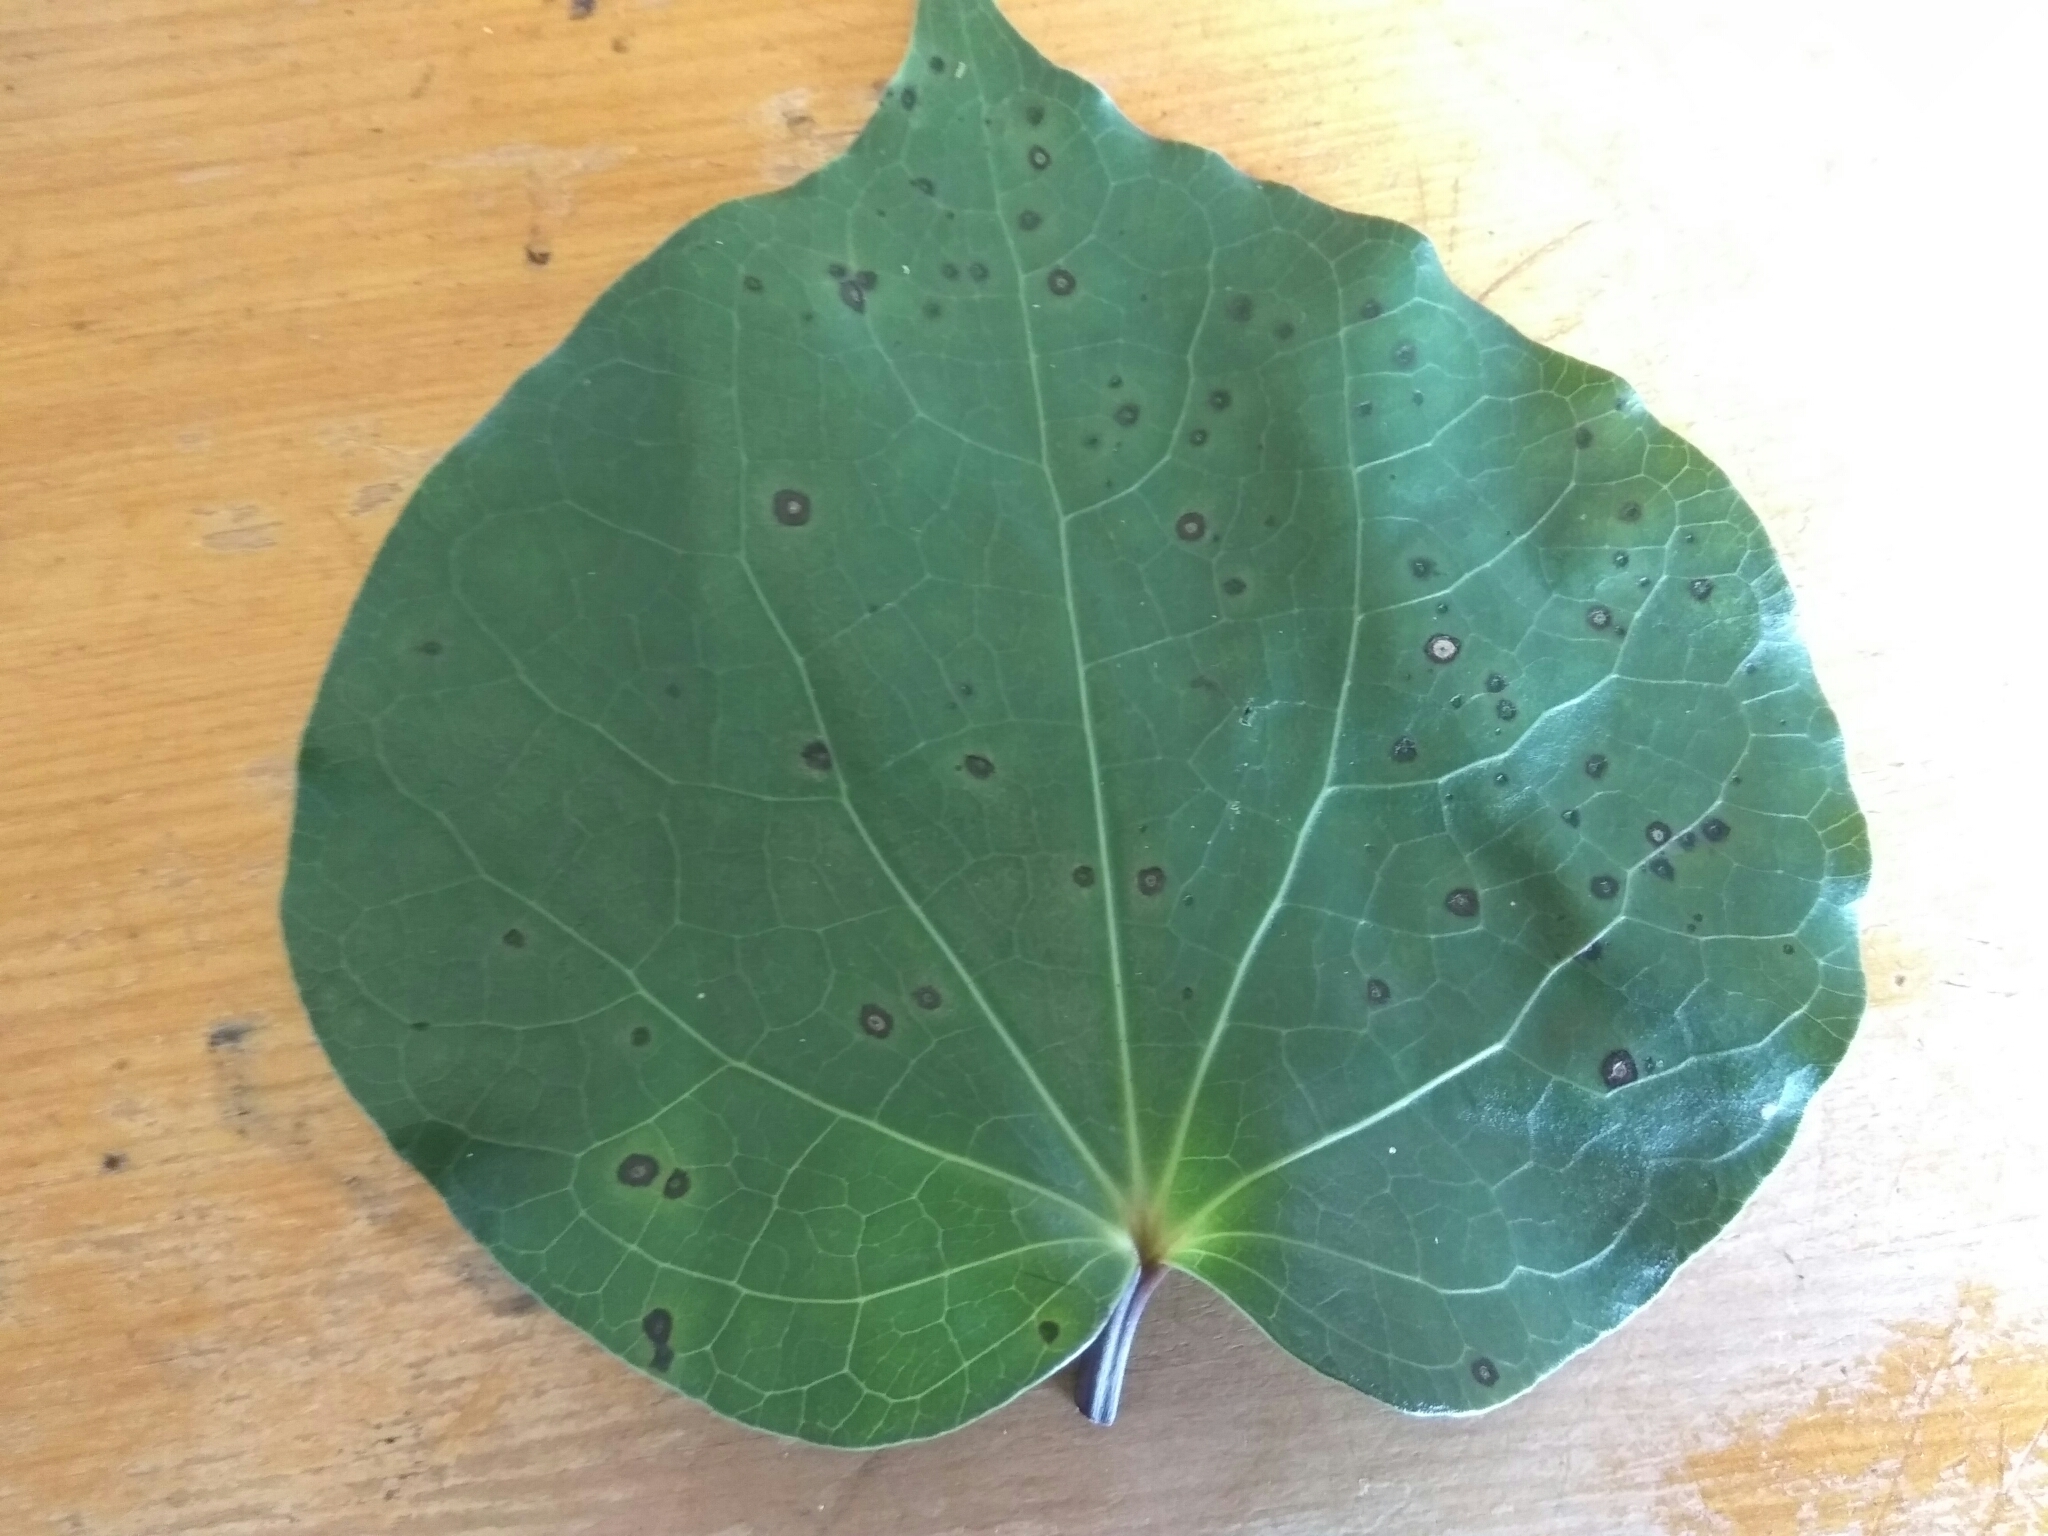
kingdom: Plantae
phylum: Tracheophyta
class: Magnoliopsida
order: Piperales
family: Piperaceae
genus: Macropiper
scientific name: Macropiper excelsum
